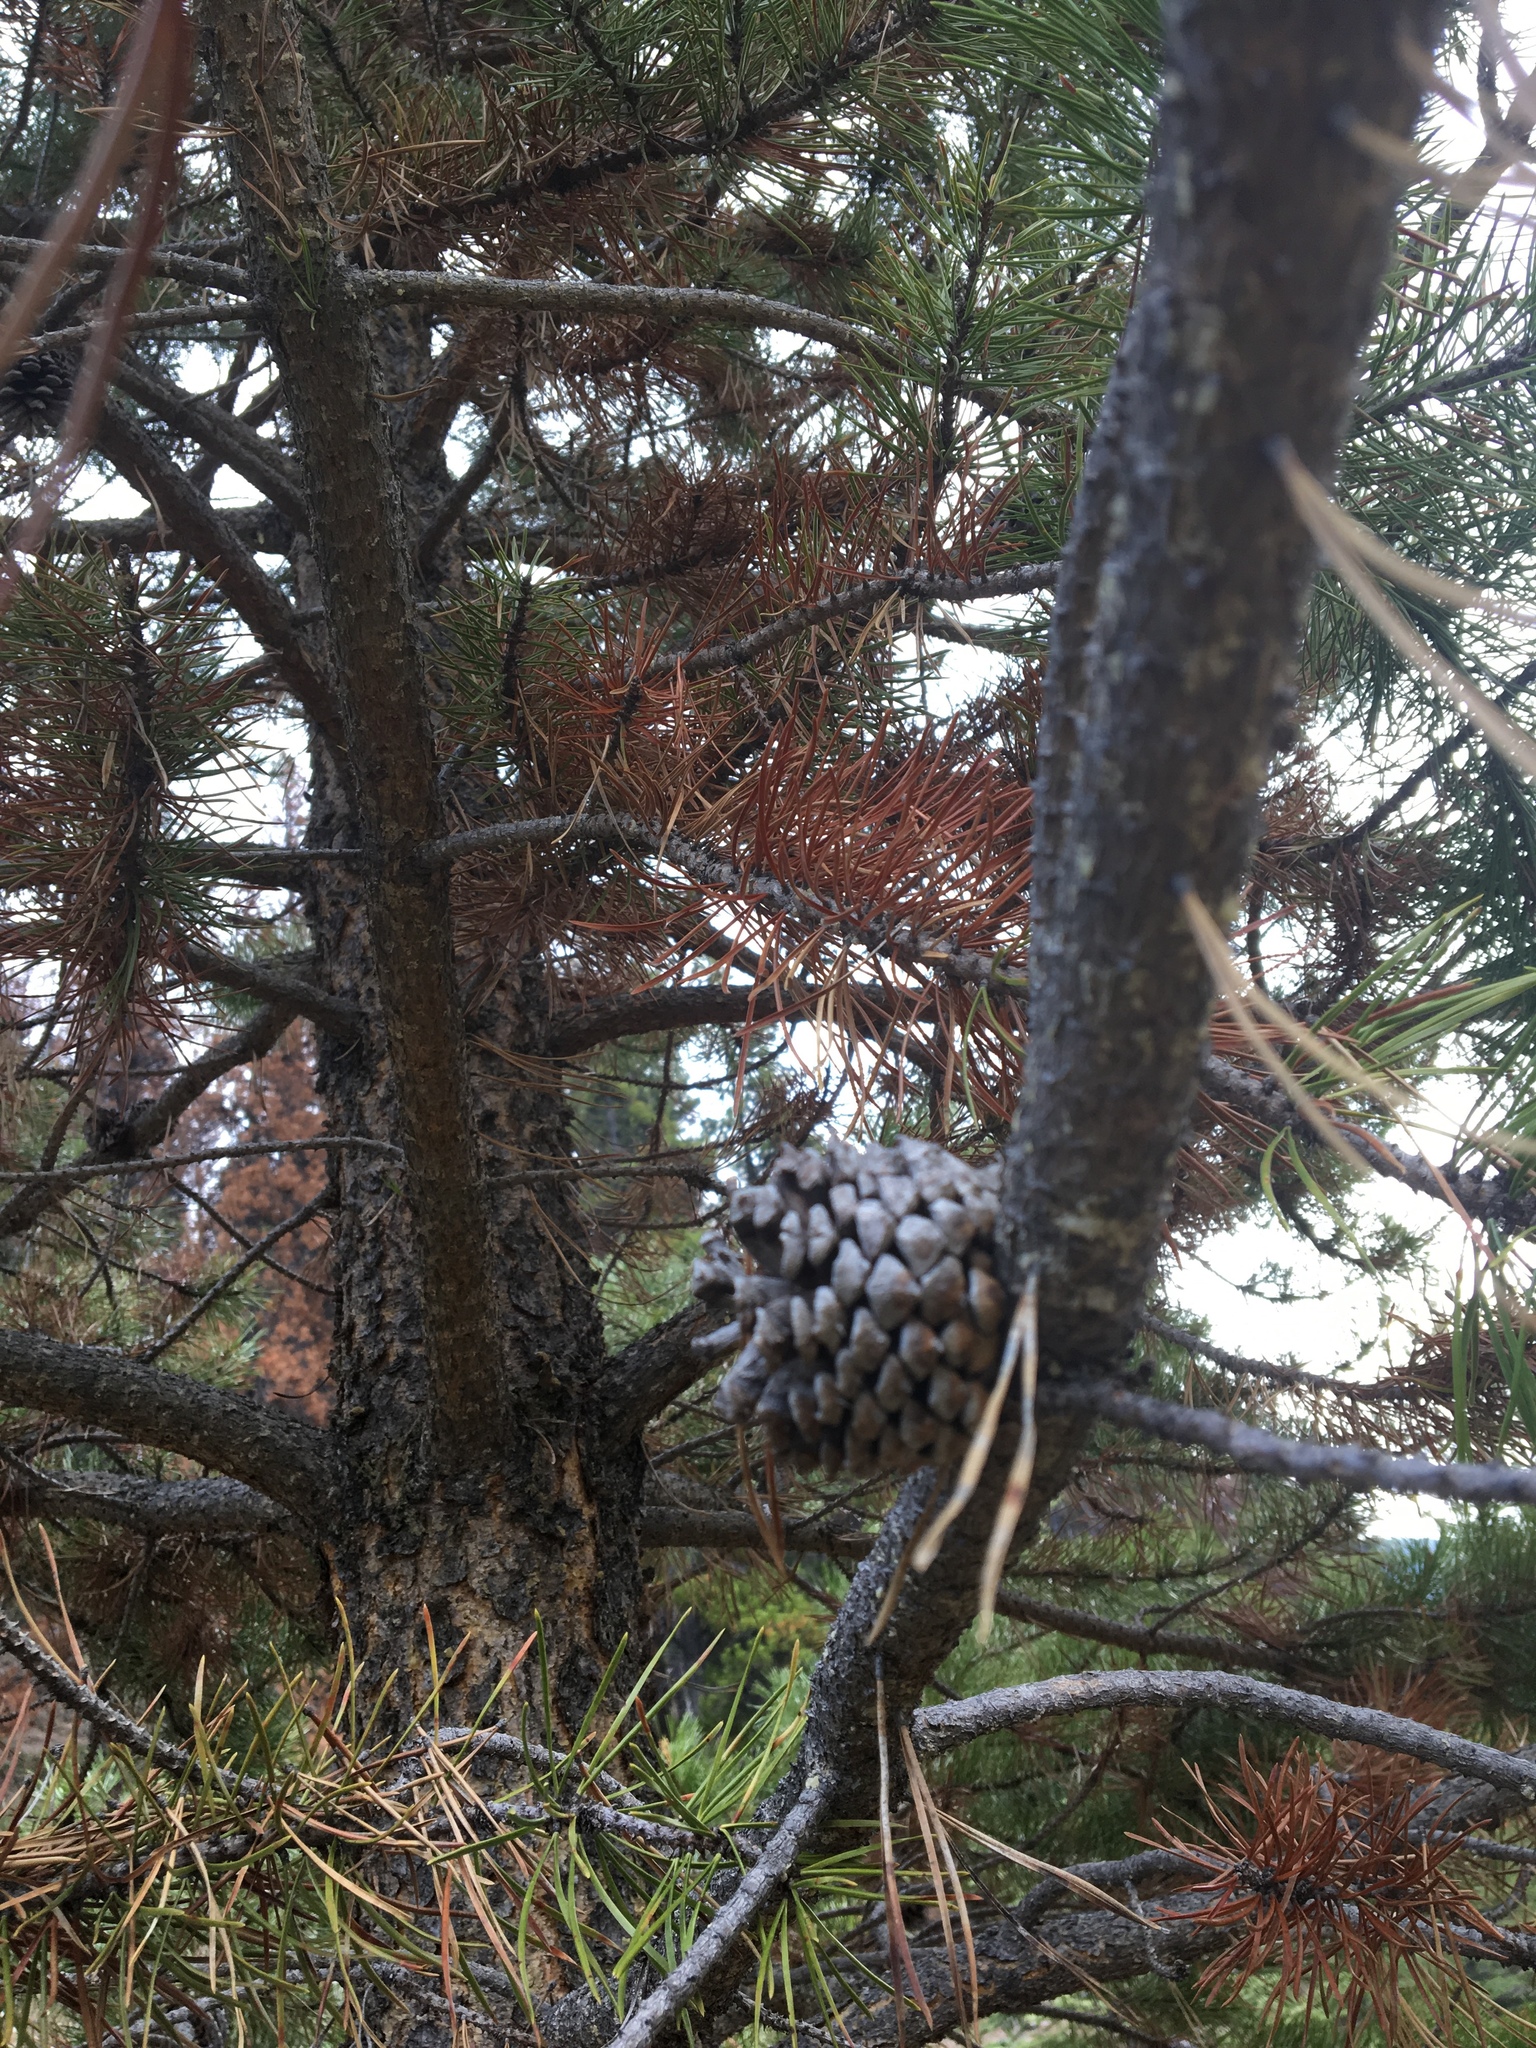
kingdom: Plantae
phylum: Tracheophyta
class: Pinopsida
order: Pinales
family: Pinaceae
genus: Pinus
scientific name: Pinus contorta
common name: Lodgepole pine
